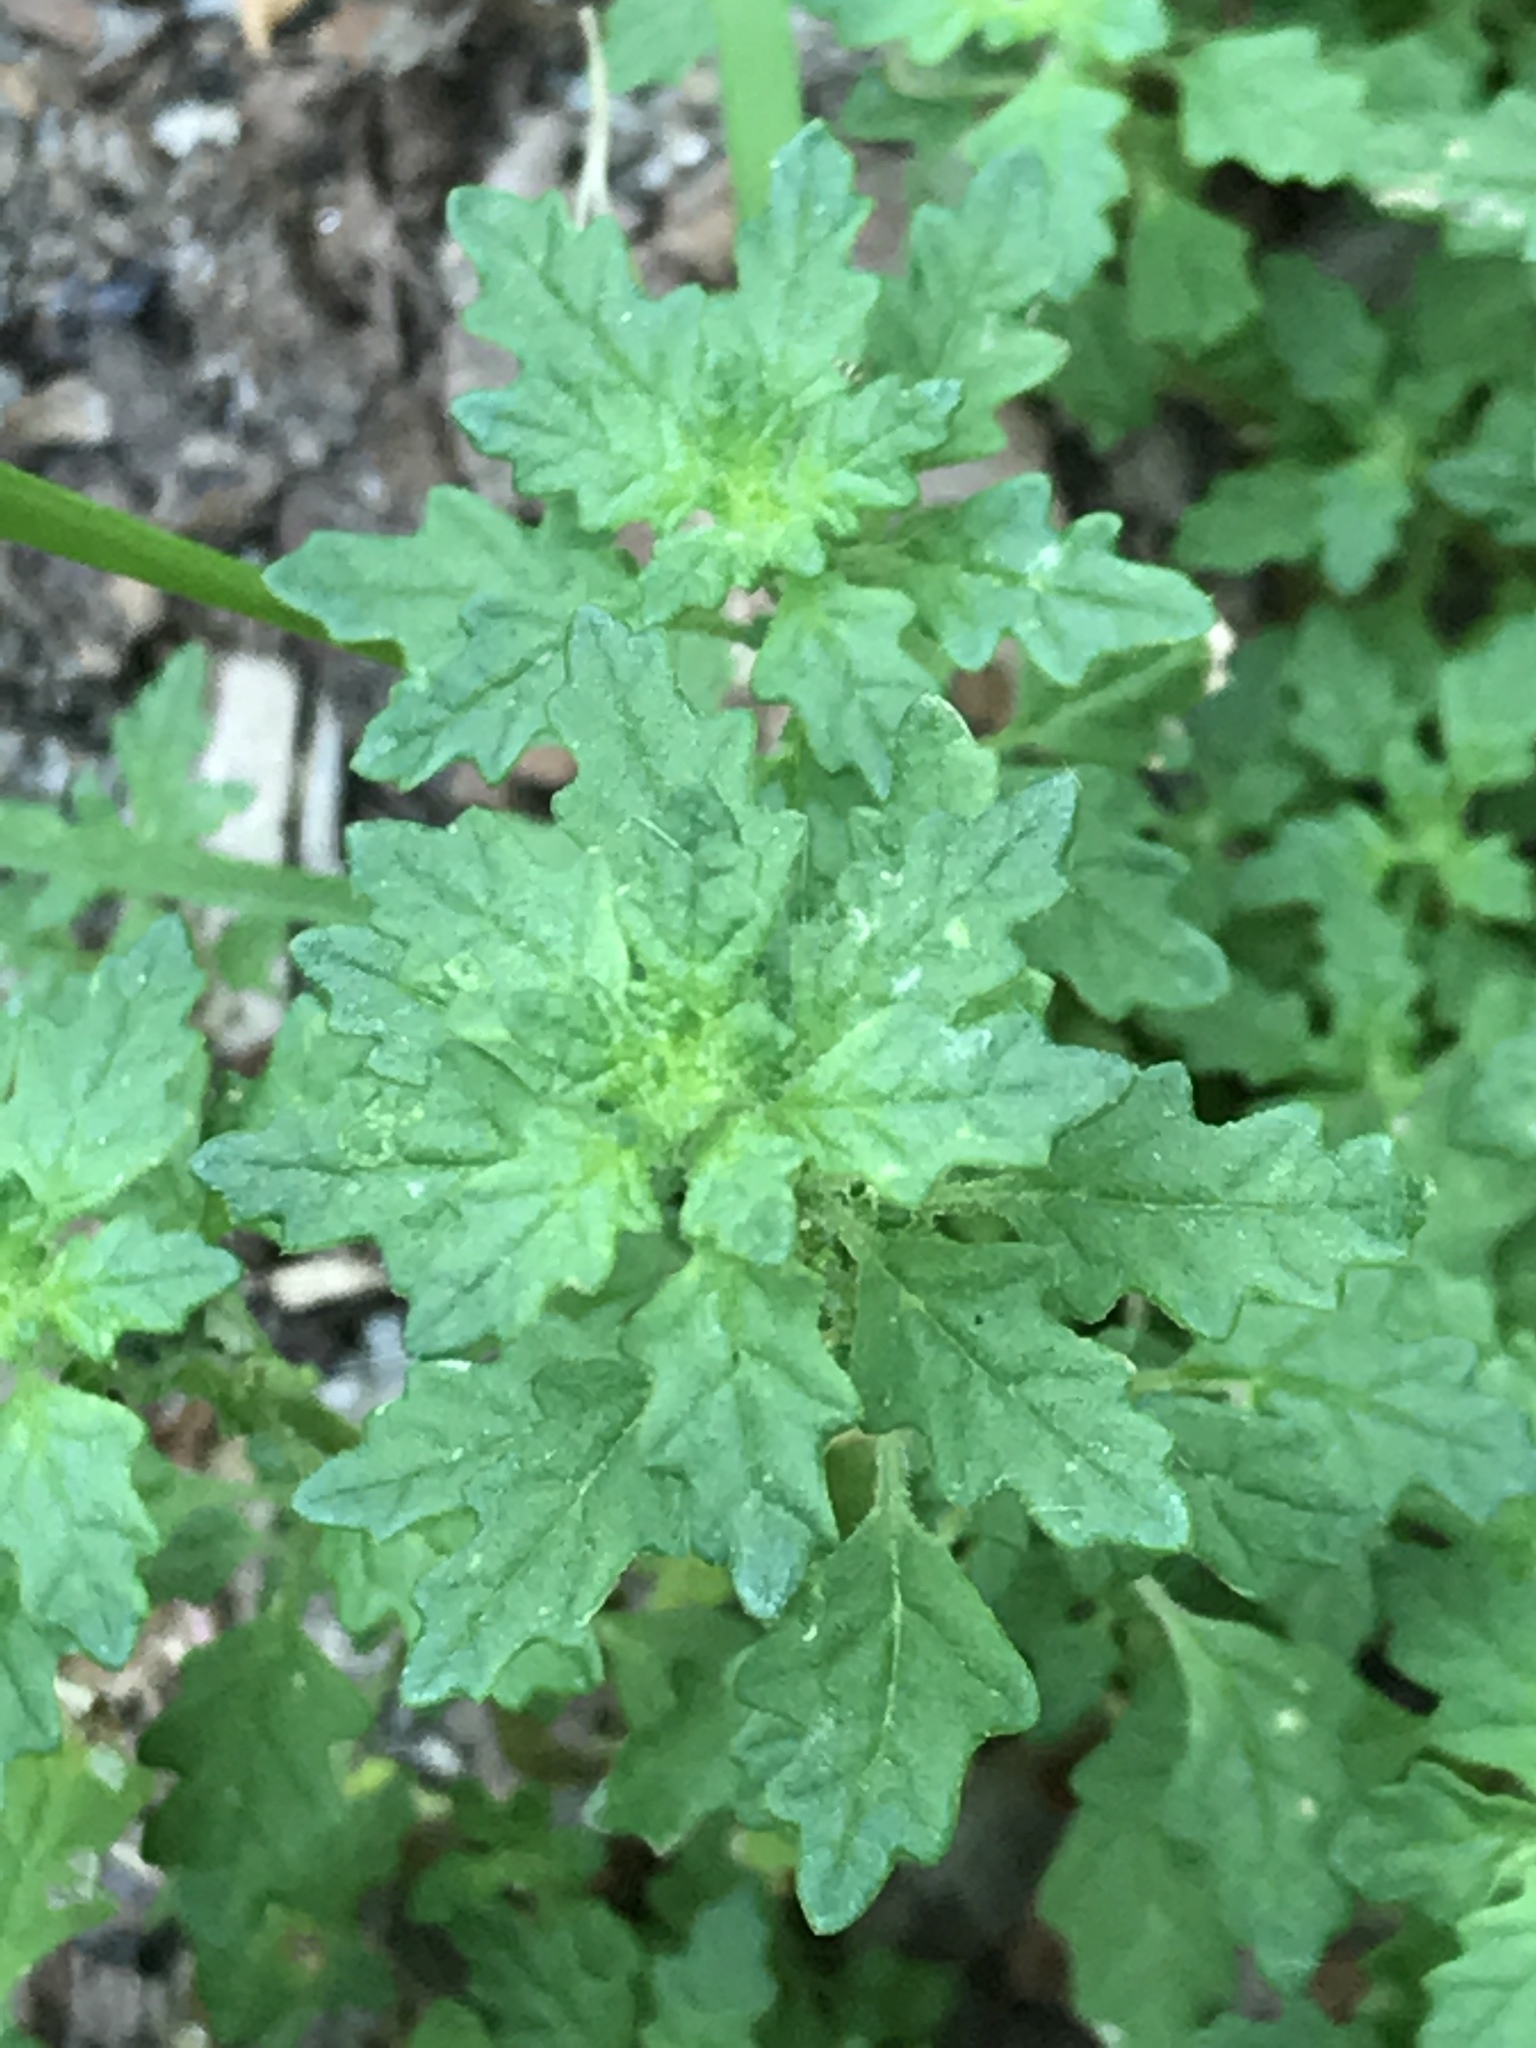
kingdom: Plantae
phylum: Tracheophyta
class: Magnoliopsida
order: Caryophyllales
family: Amaranthaceae
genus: Dysphania
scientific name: Dysphania pumilio
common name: Clammy goosefoot
